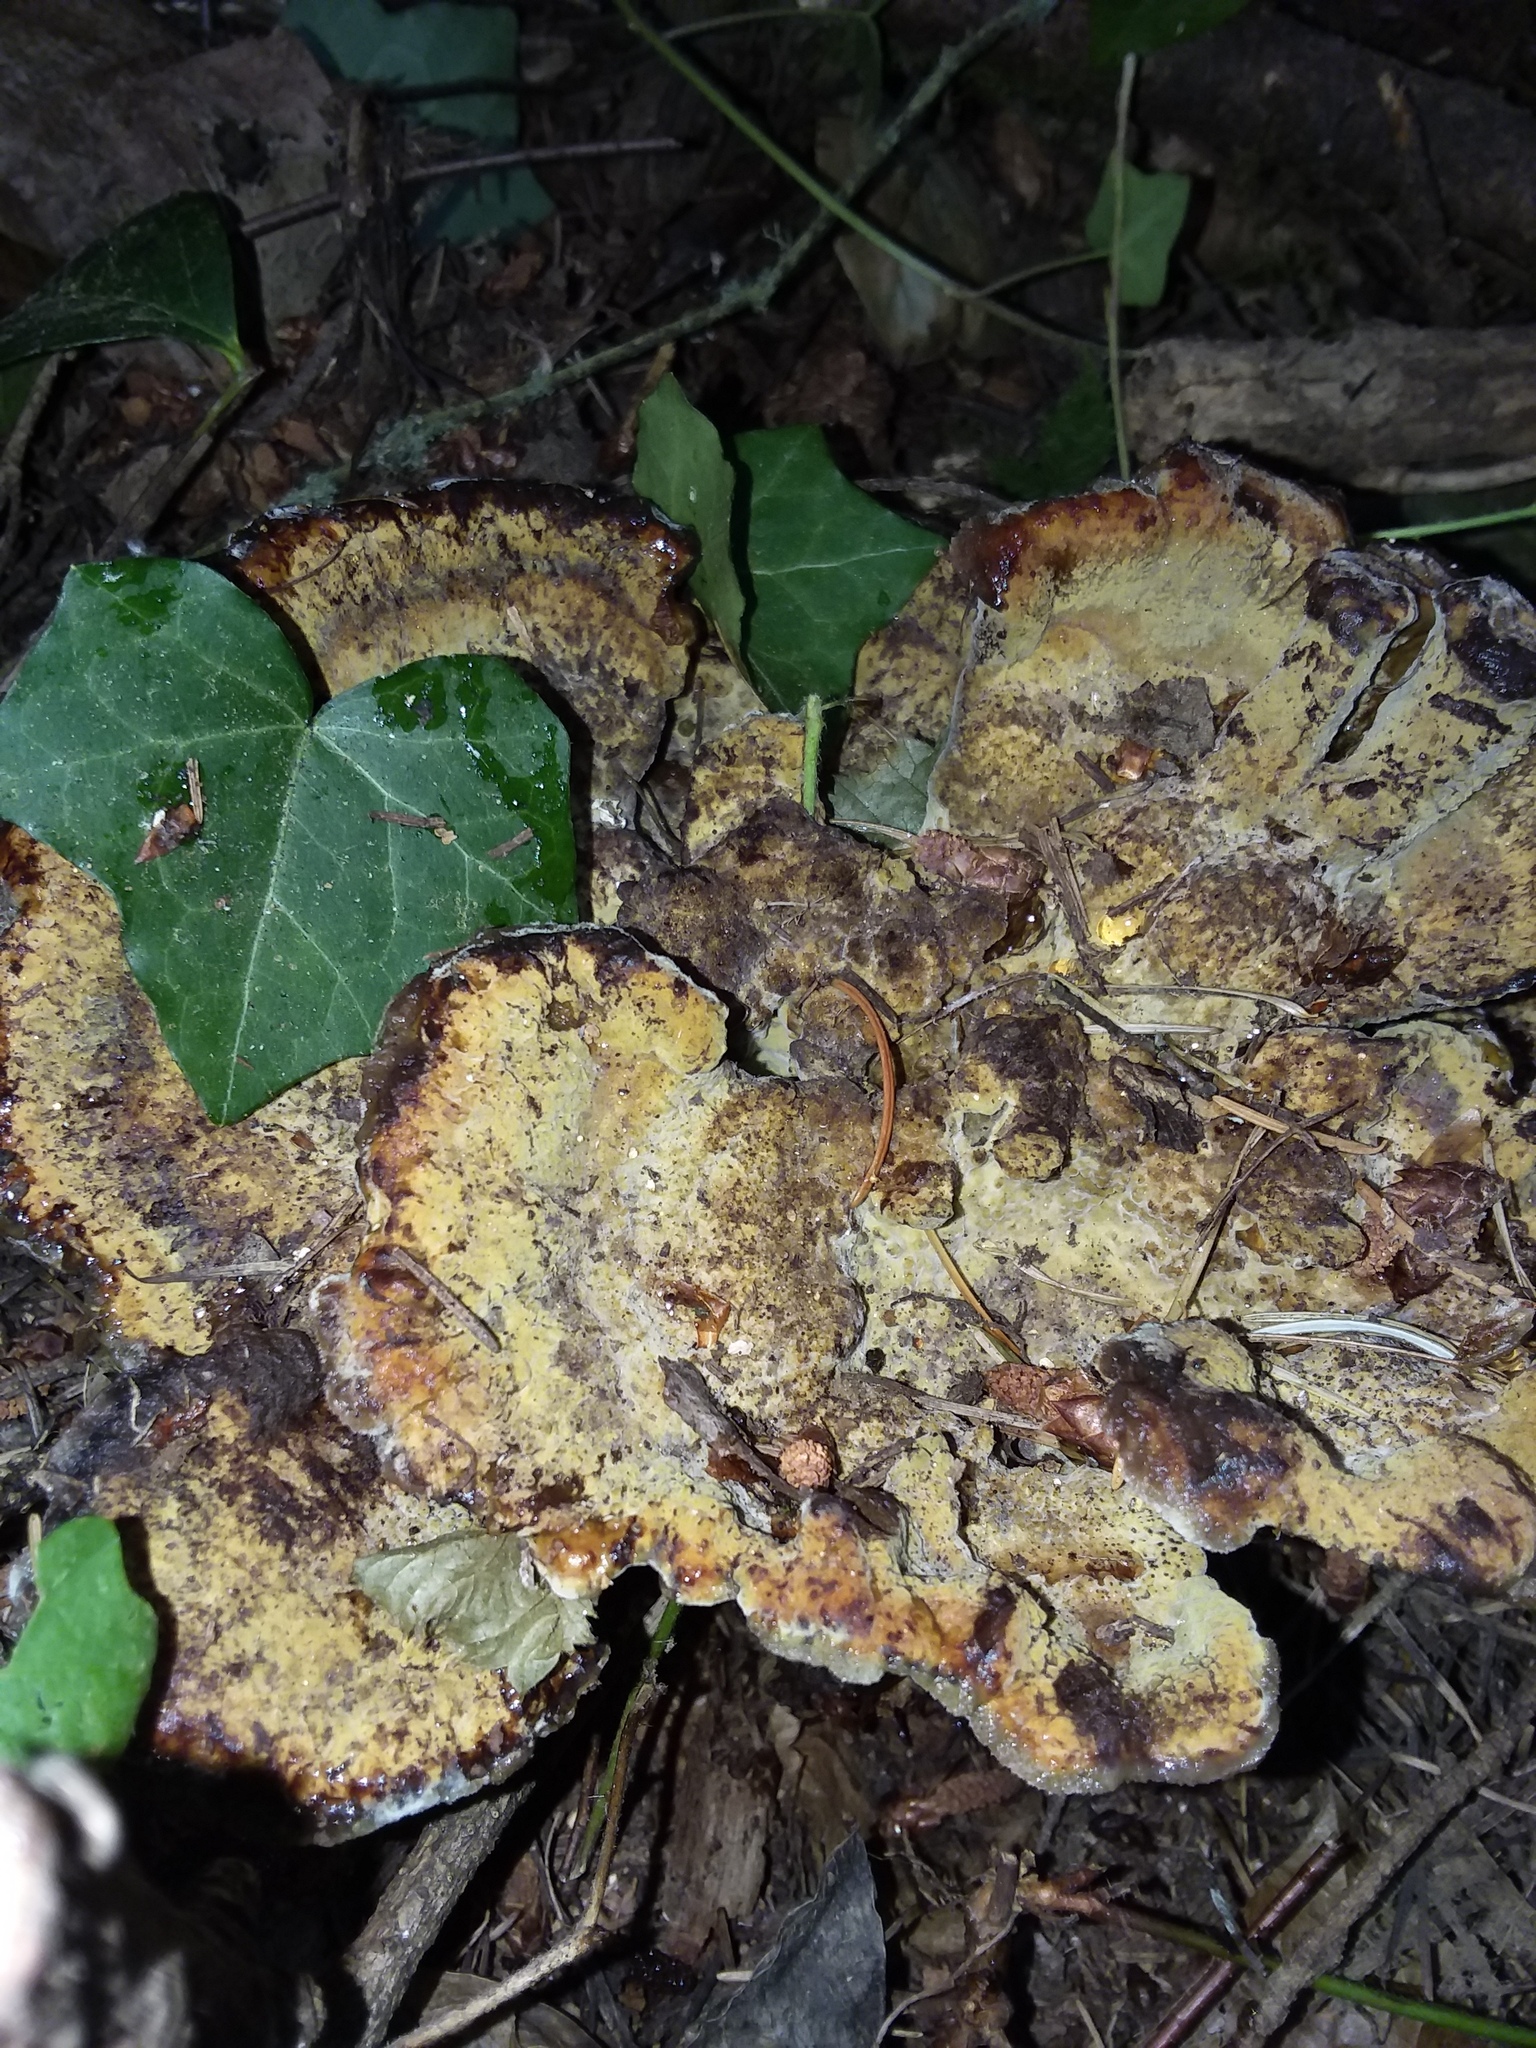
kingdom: Fungi
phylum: Basidiomycota
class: Agaricomycetes
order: Polyporales
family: Laetiporaceae
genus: Phaeolus
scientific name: Phaeolus schweinitzii
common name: Dyer's mazegill
